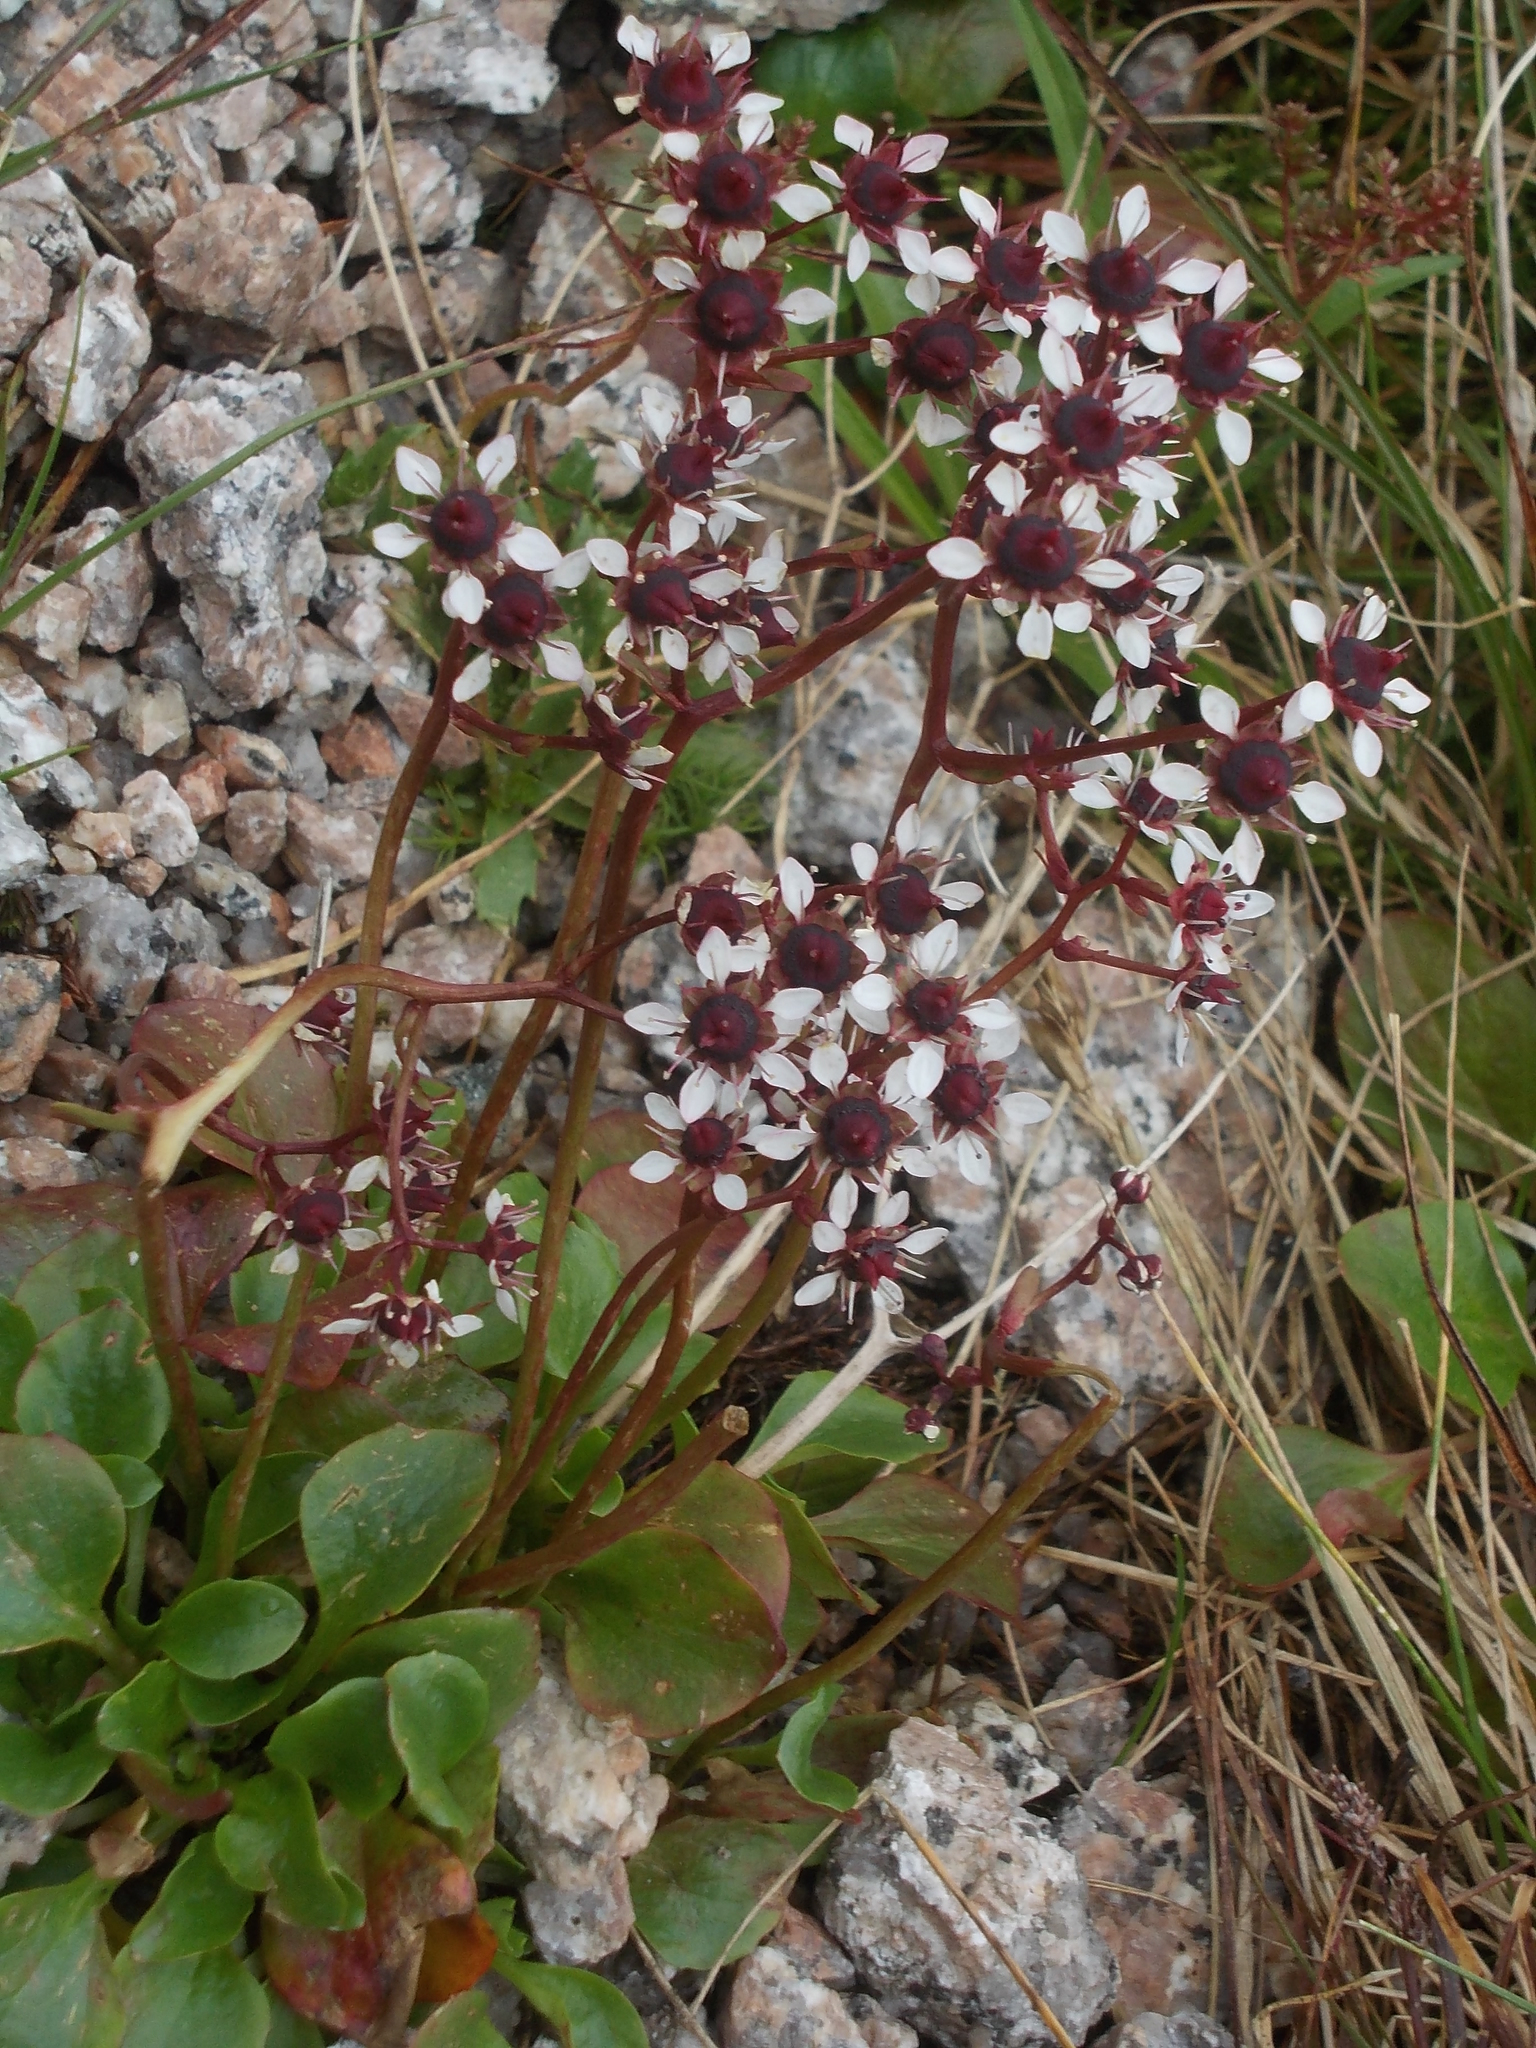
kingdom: Plantae
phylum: Tracheophyta
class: Magnoliopsida
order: Saxifragales
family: Saxifragaceae
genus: Micranthes
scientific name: Micranthes melaleuca
